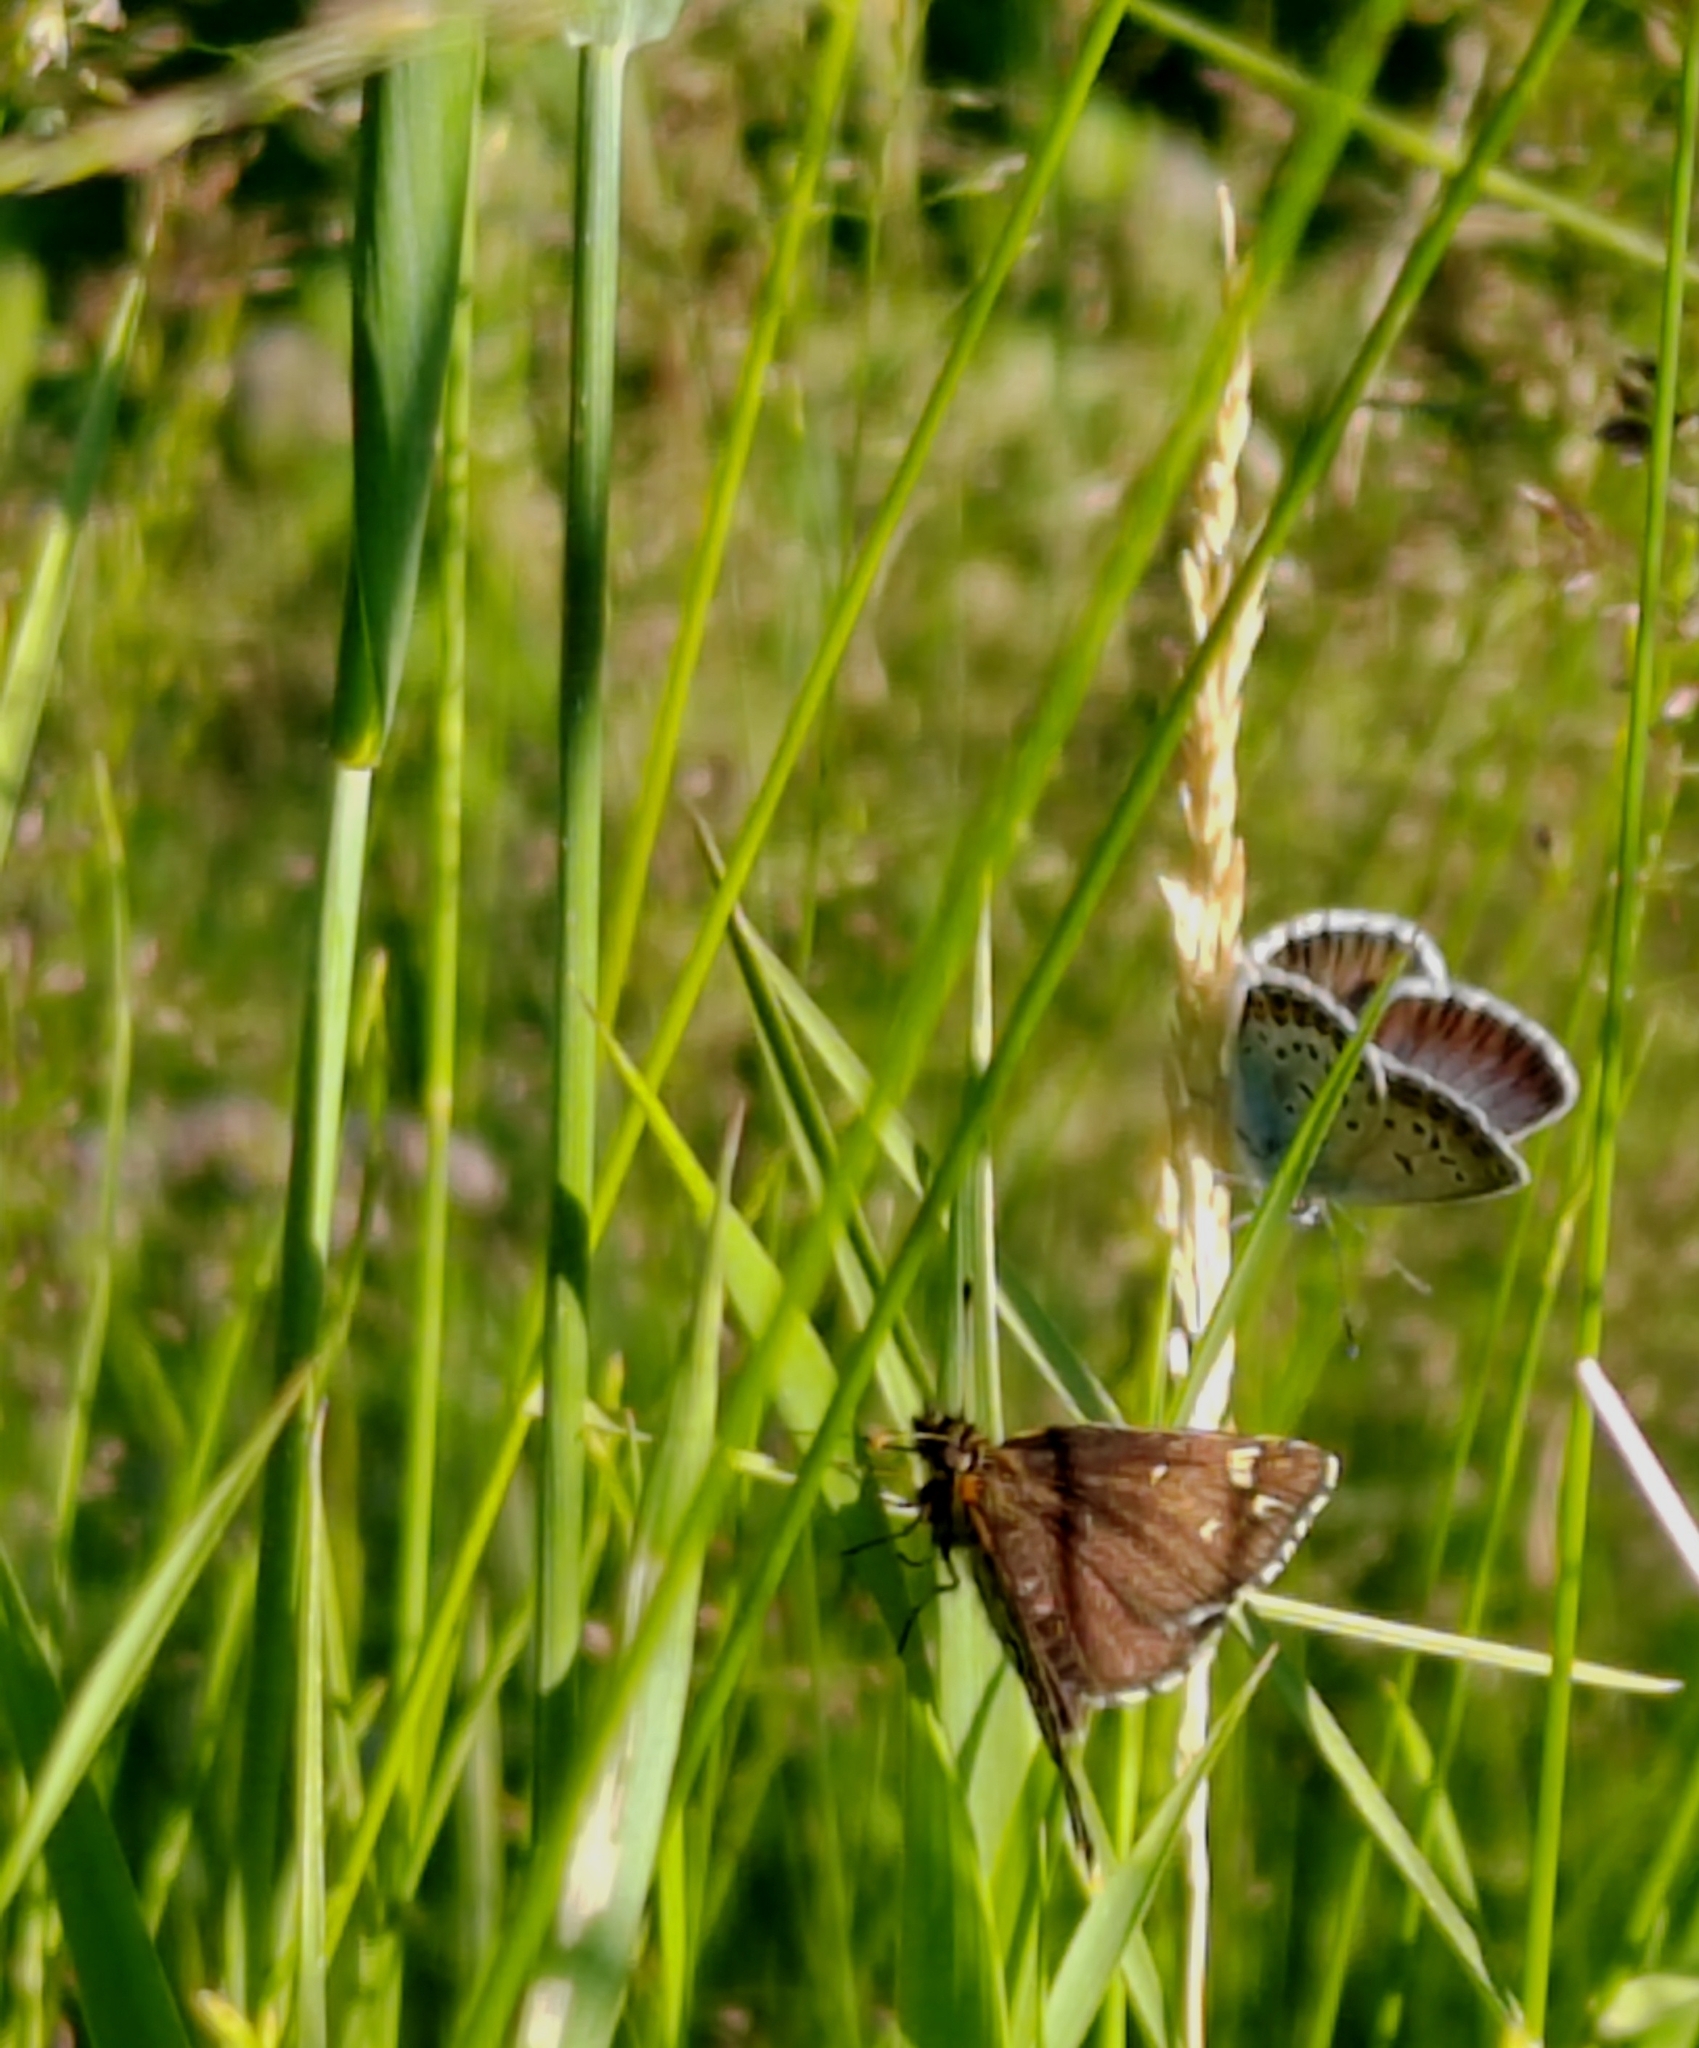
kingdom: Animalia
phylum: Arthropoda
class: Insecta
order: Lepidoptera
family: Hesperiidae
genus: Heteropterus
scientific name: Heteropterus morpheus
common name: Large chequered skipper
